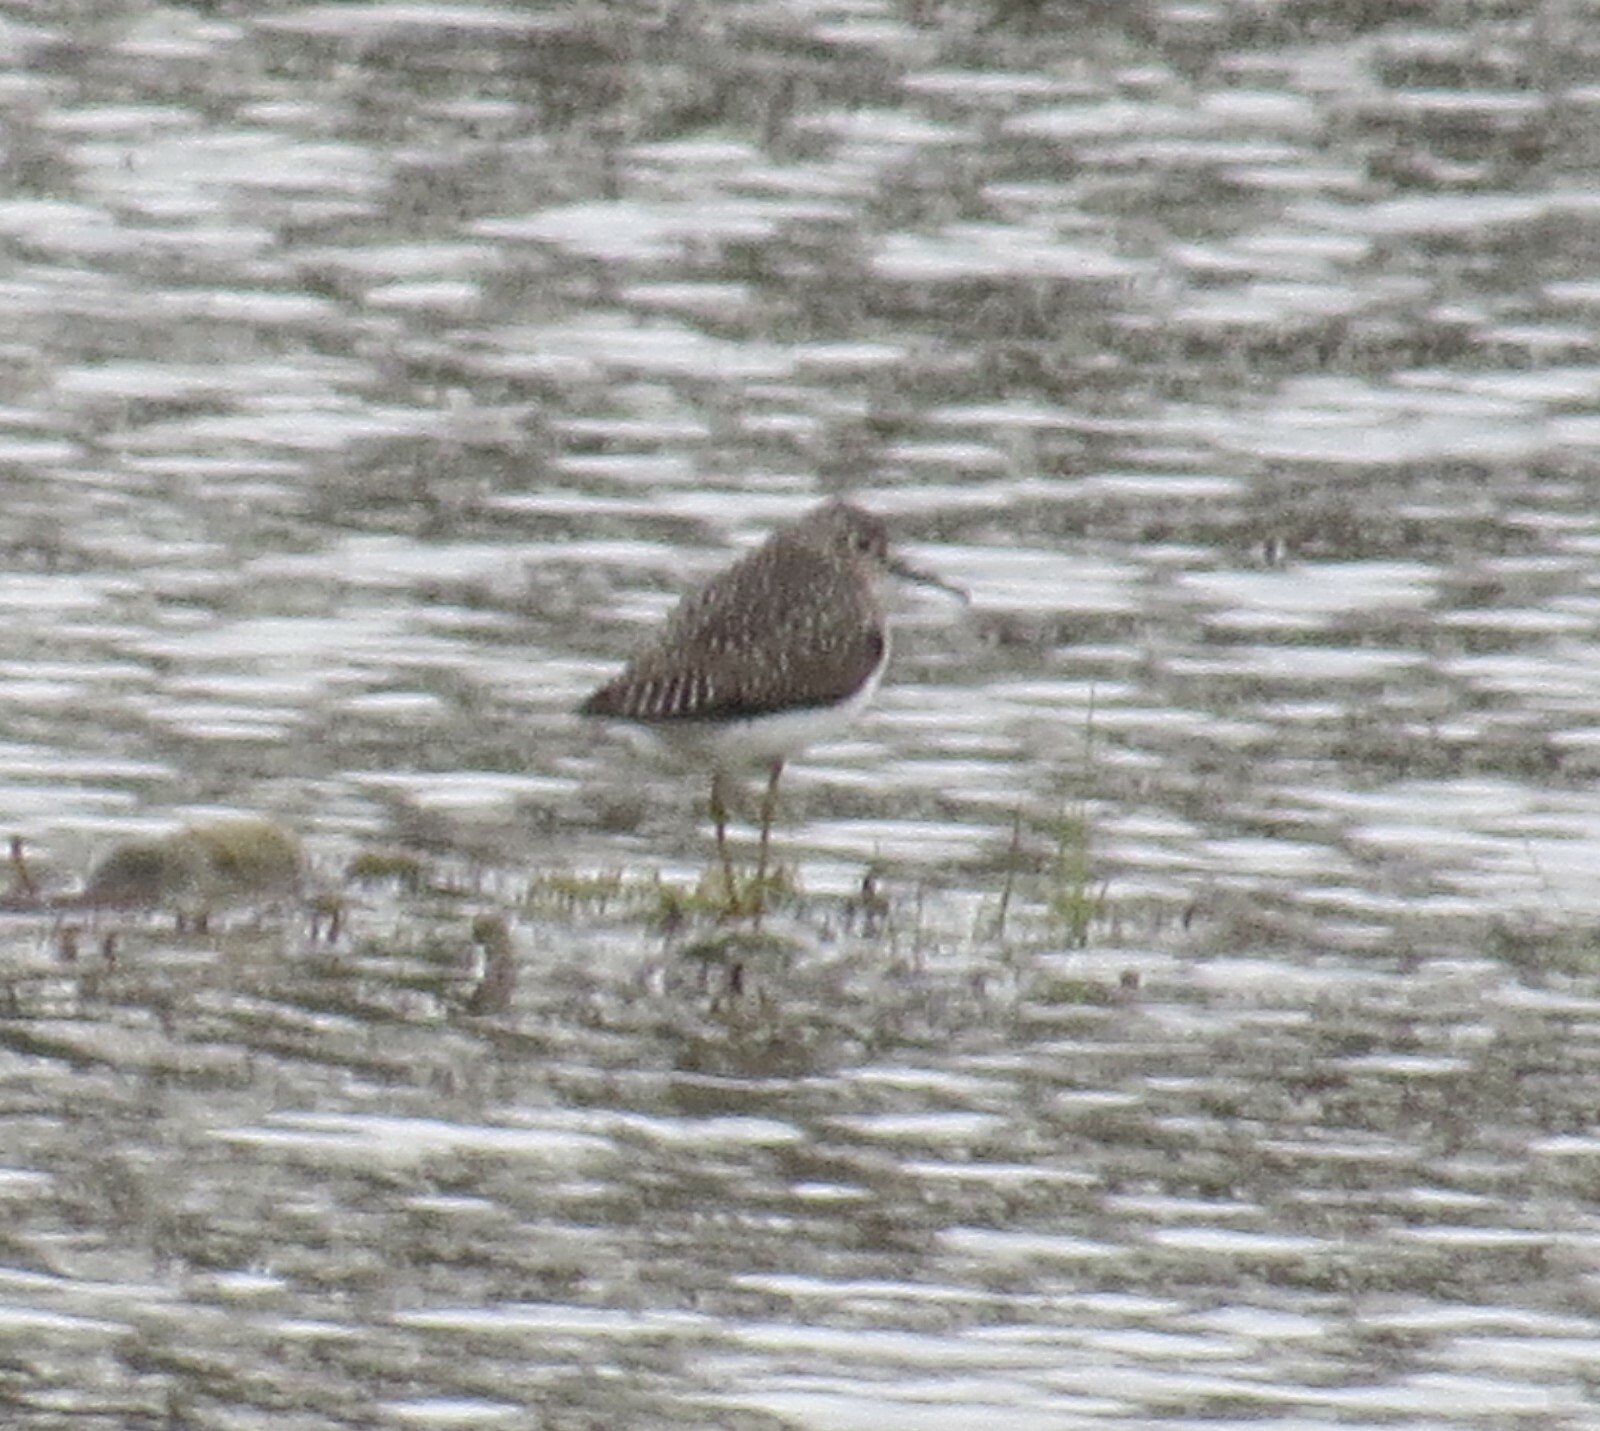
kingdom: Animalia
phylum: Chordata
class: Aves
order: Charadriiformes
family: Scolopacidae
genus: Tringa
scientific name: Tringa solitaria
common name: Solitary sandpiper
